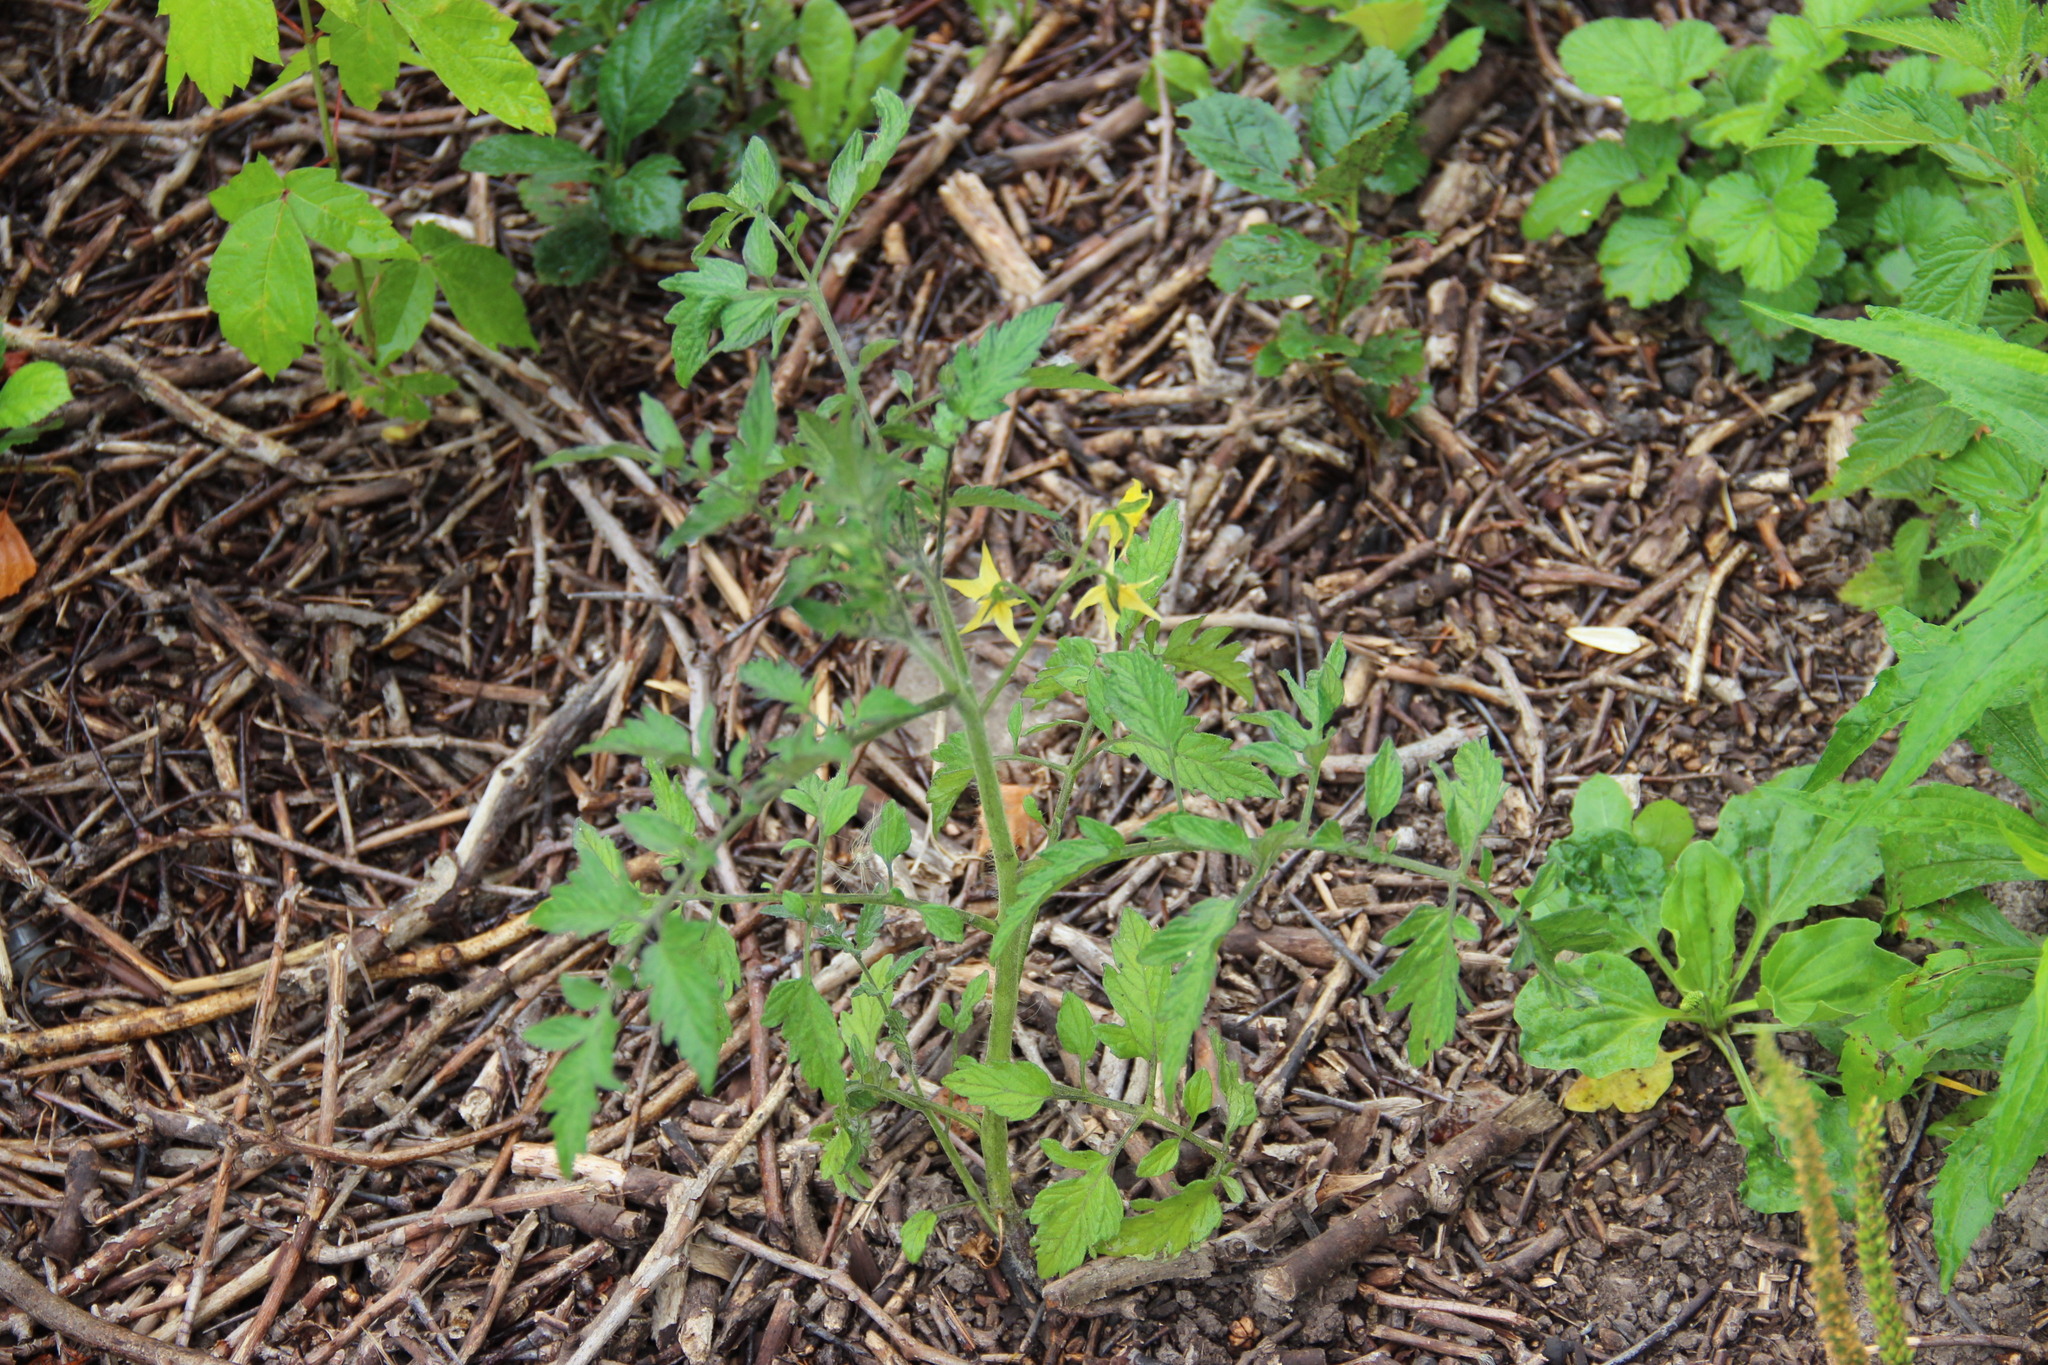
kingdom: Plantae
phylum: Tracheophyta
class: Magnoliopsida
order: Solanales
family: Solanaceae
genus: Solanum
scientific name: Solanum lycopersicum
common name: Garden tomato
